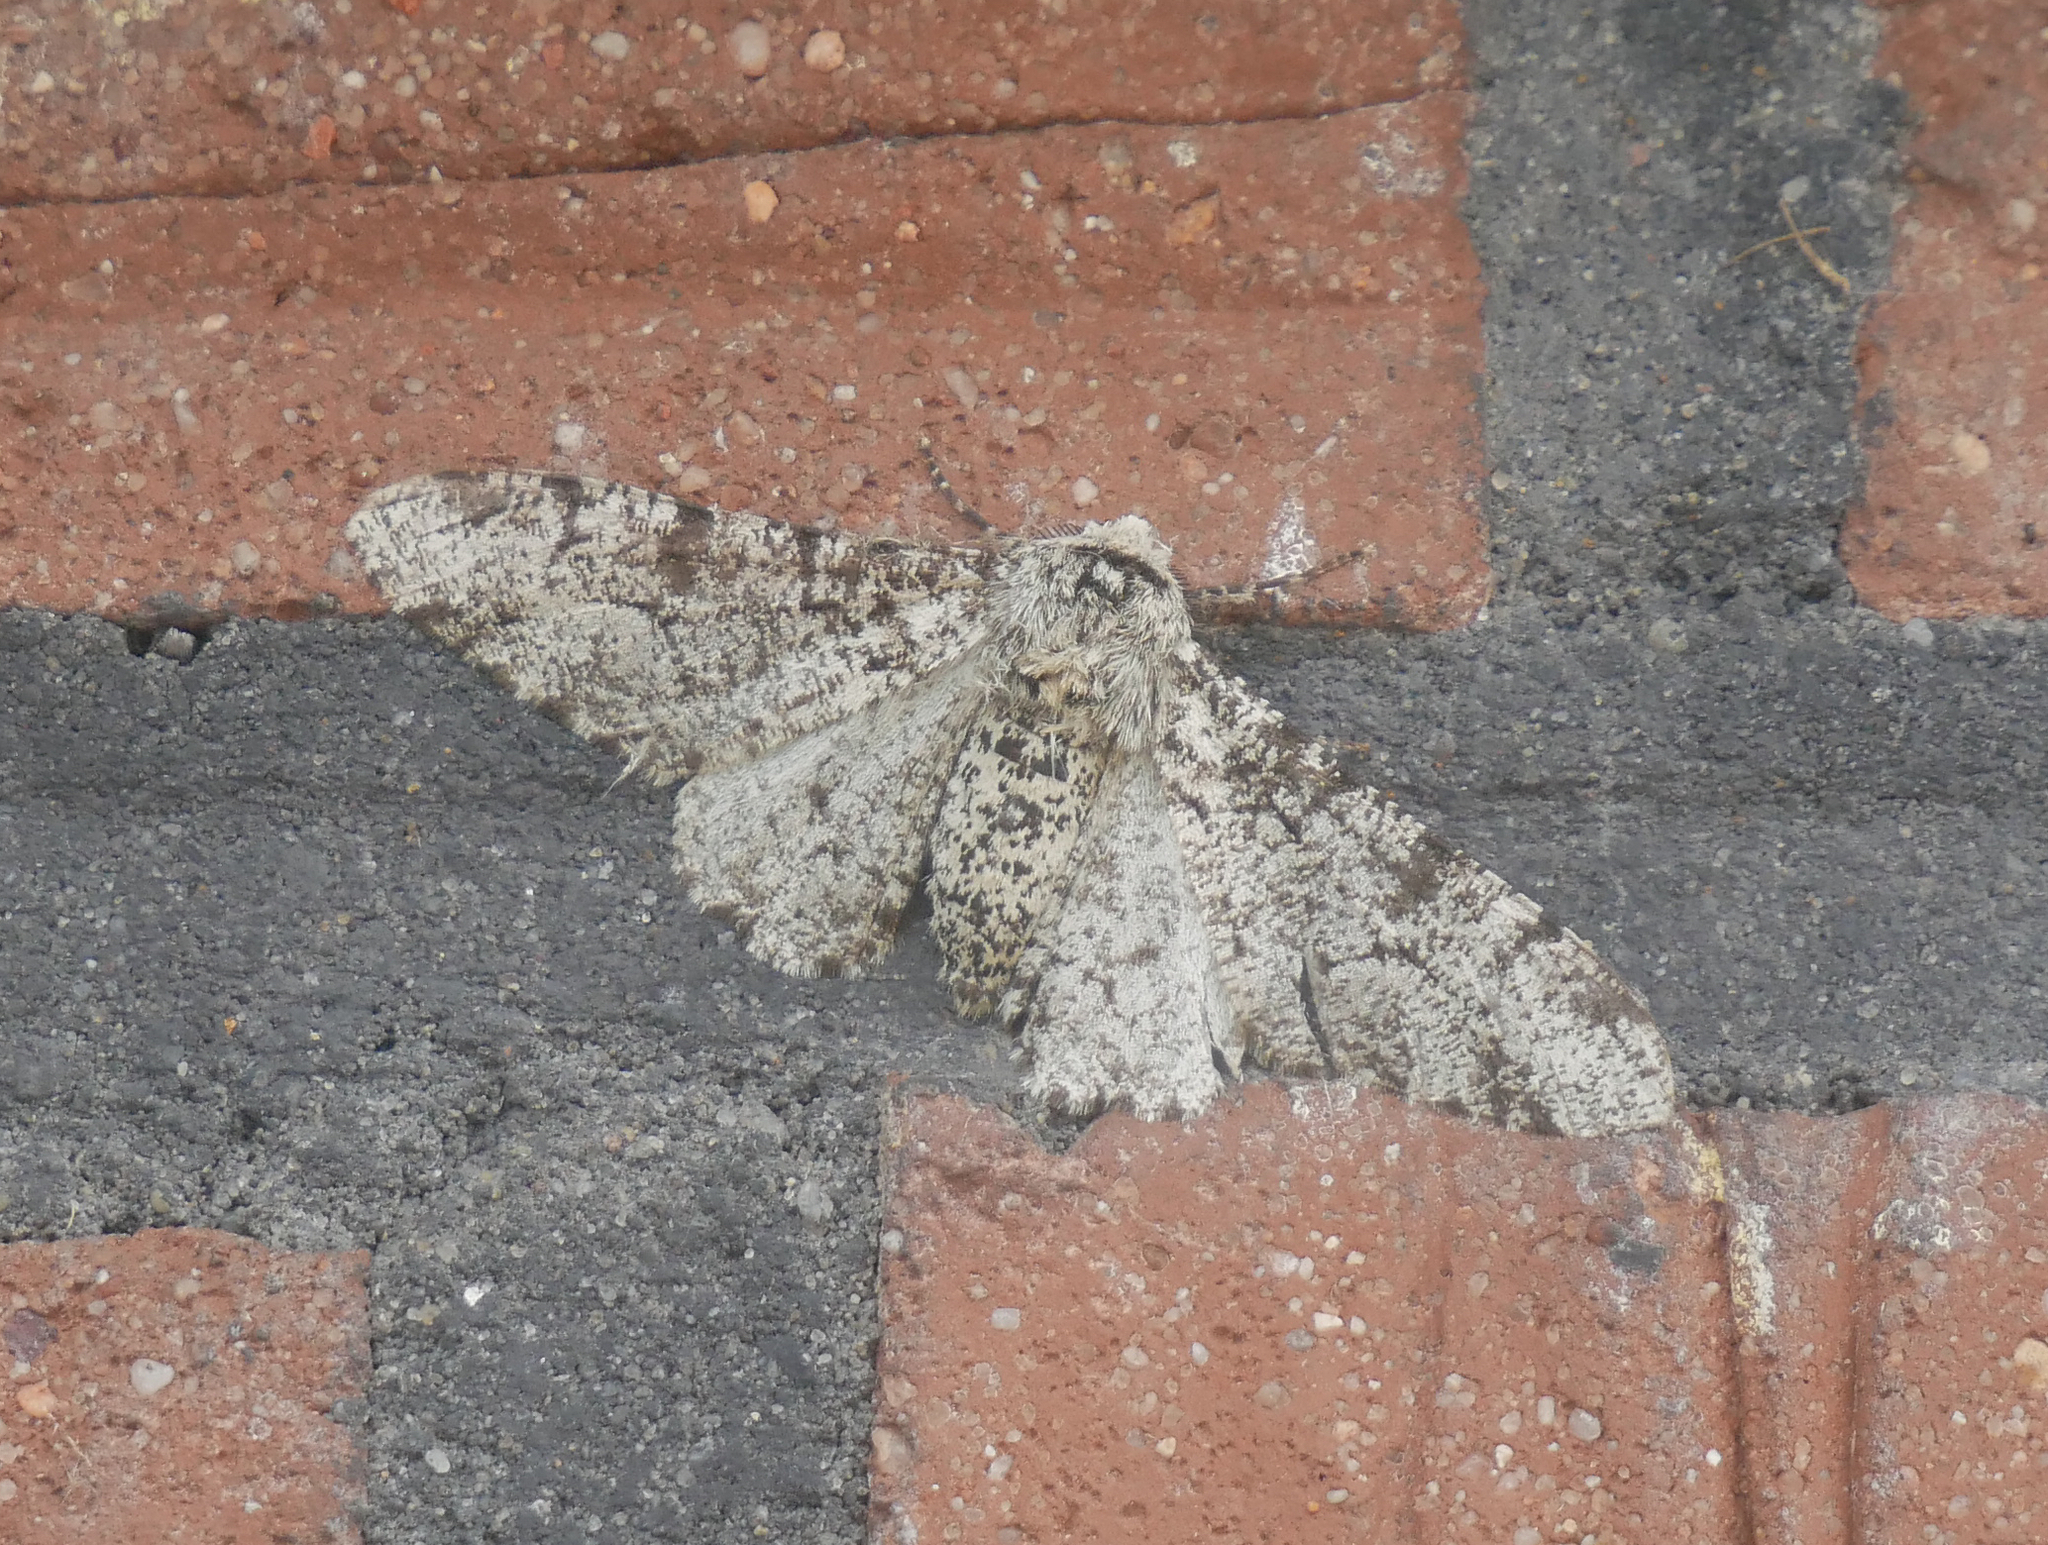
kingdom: Animalia
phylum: Arthropoda
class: Insecta
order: Lepidoptera
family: Geometridae
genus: Biston
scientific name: Biston betularia
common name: Peppered moth
